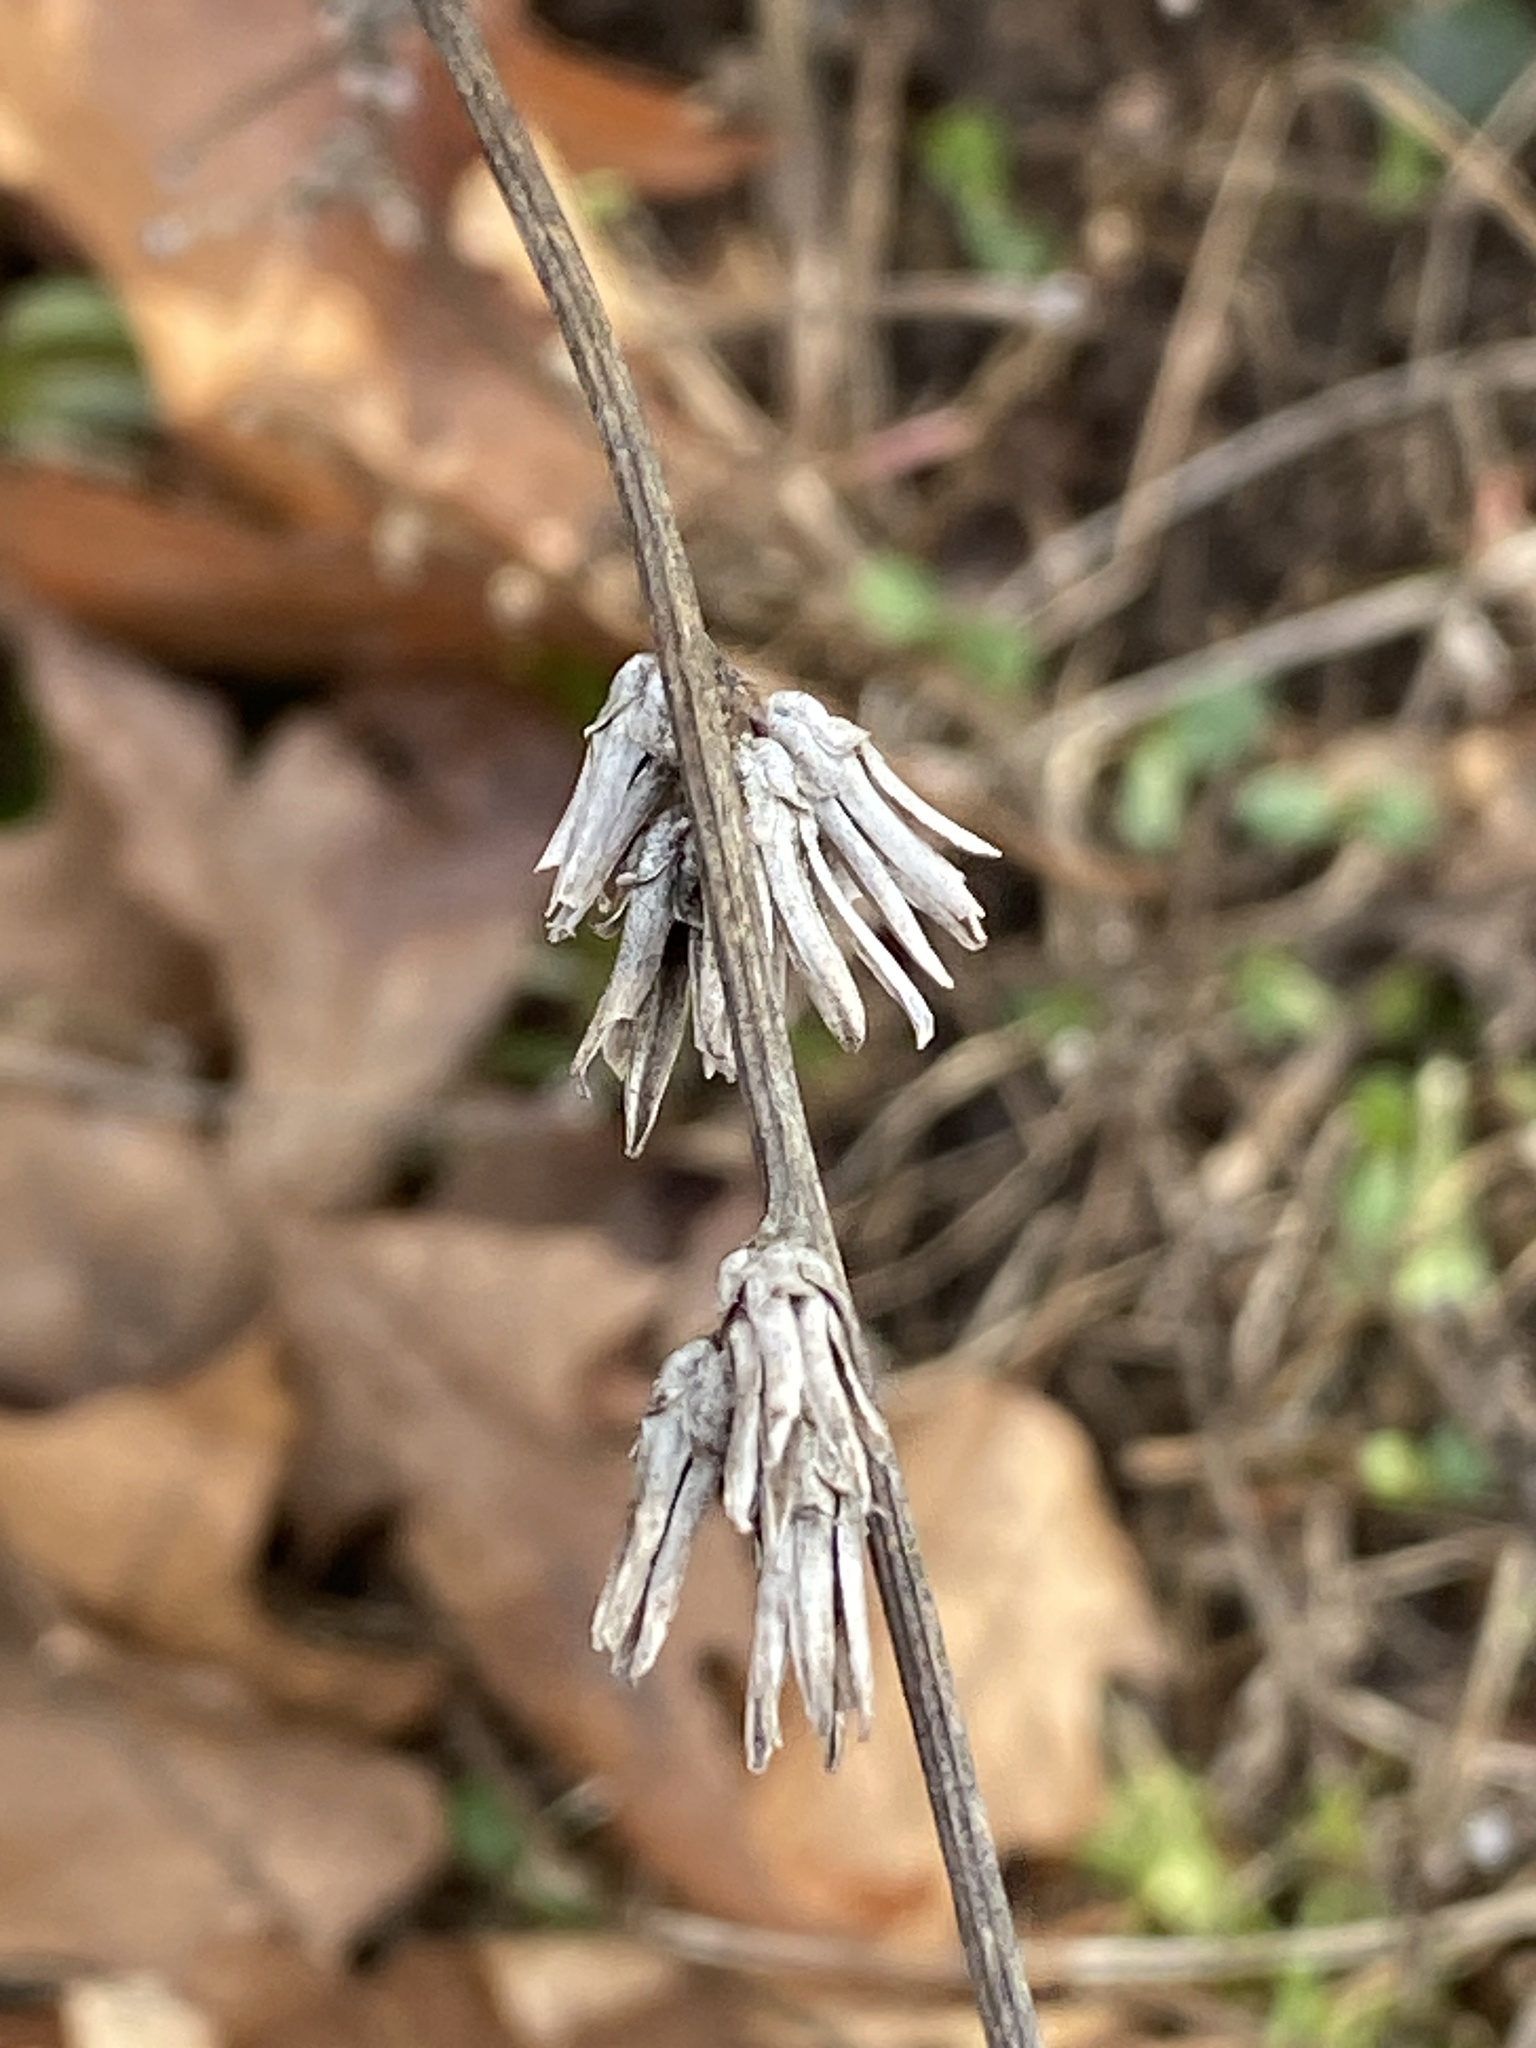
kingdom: Plantae
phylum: Tracheophyta
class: Magnoliopsida
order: Asterales
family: Asteraceae
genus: Cichorium
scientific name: Cichorium intybus
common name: Chicory
